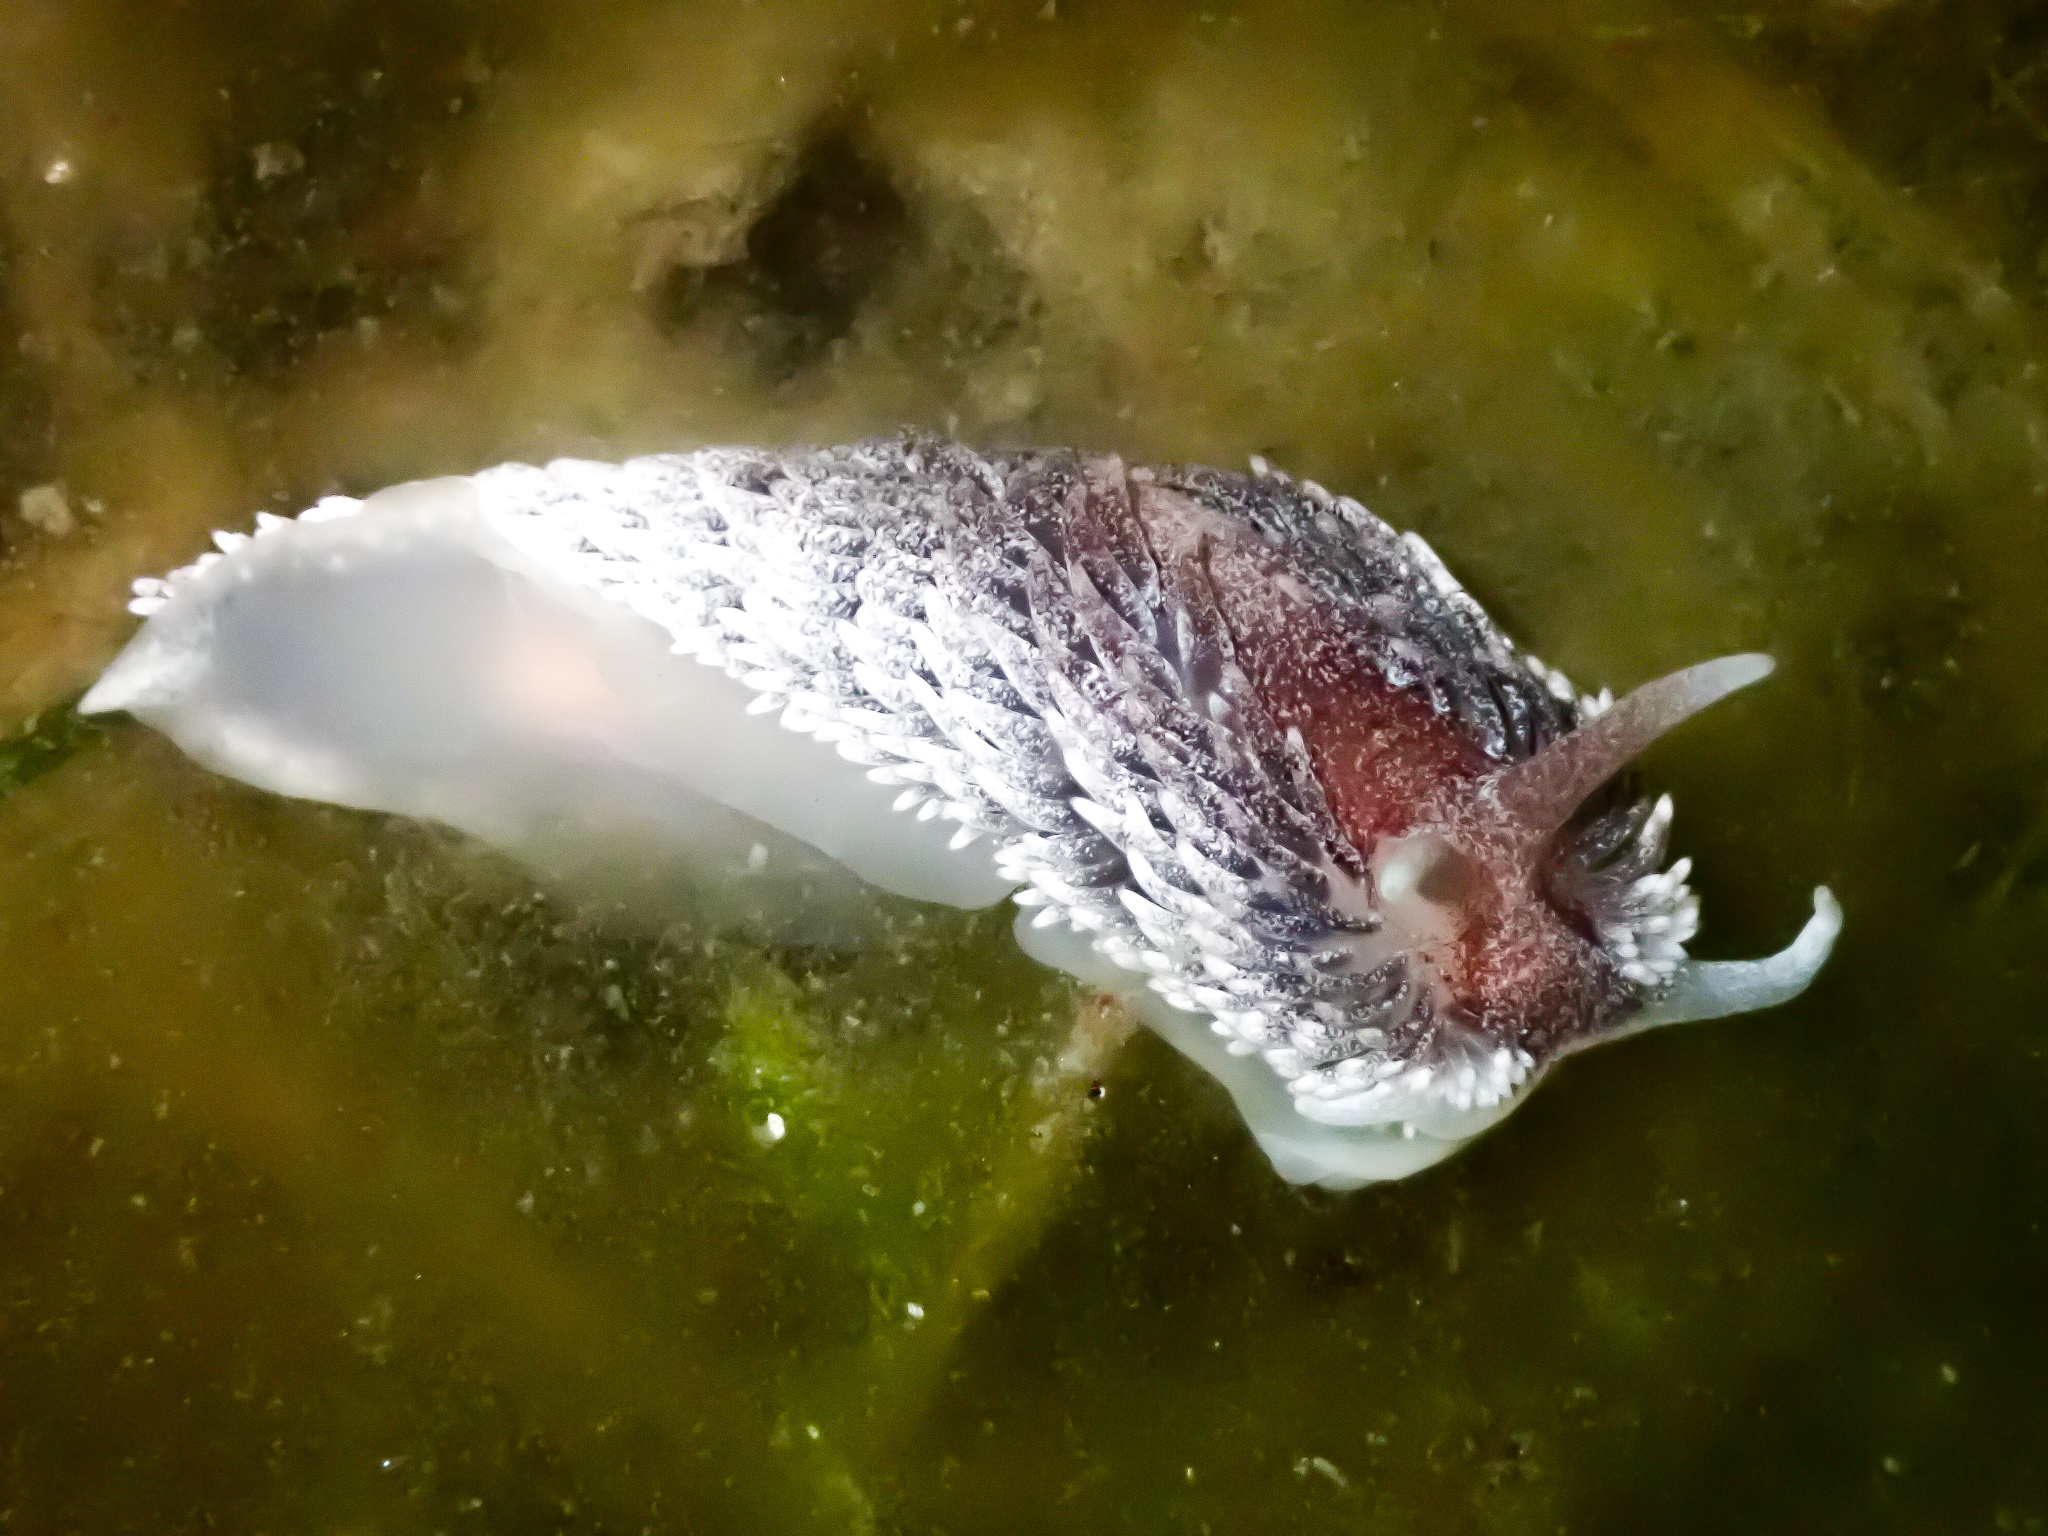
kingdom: Animalia
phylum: Mollusca
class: Gastropoda
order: Nudibranchia
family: Aeolidiidae
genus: Aeolidia
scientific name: Aeolidia papillosa
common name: Common grey sea slug
